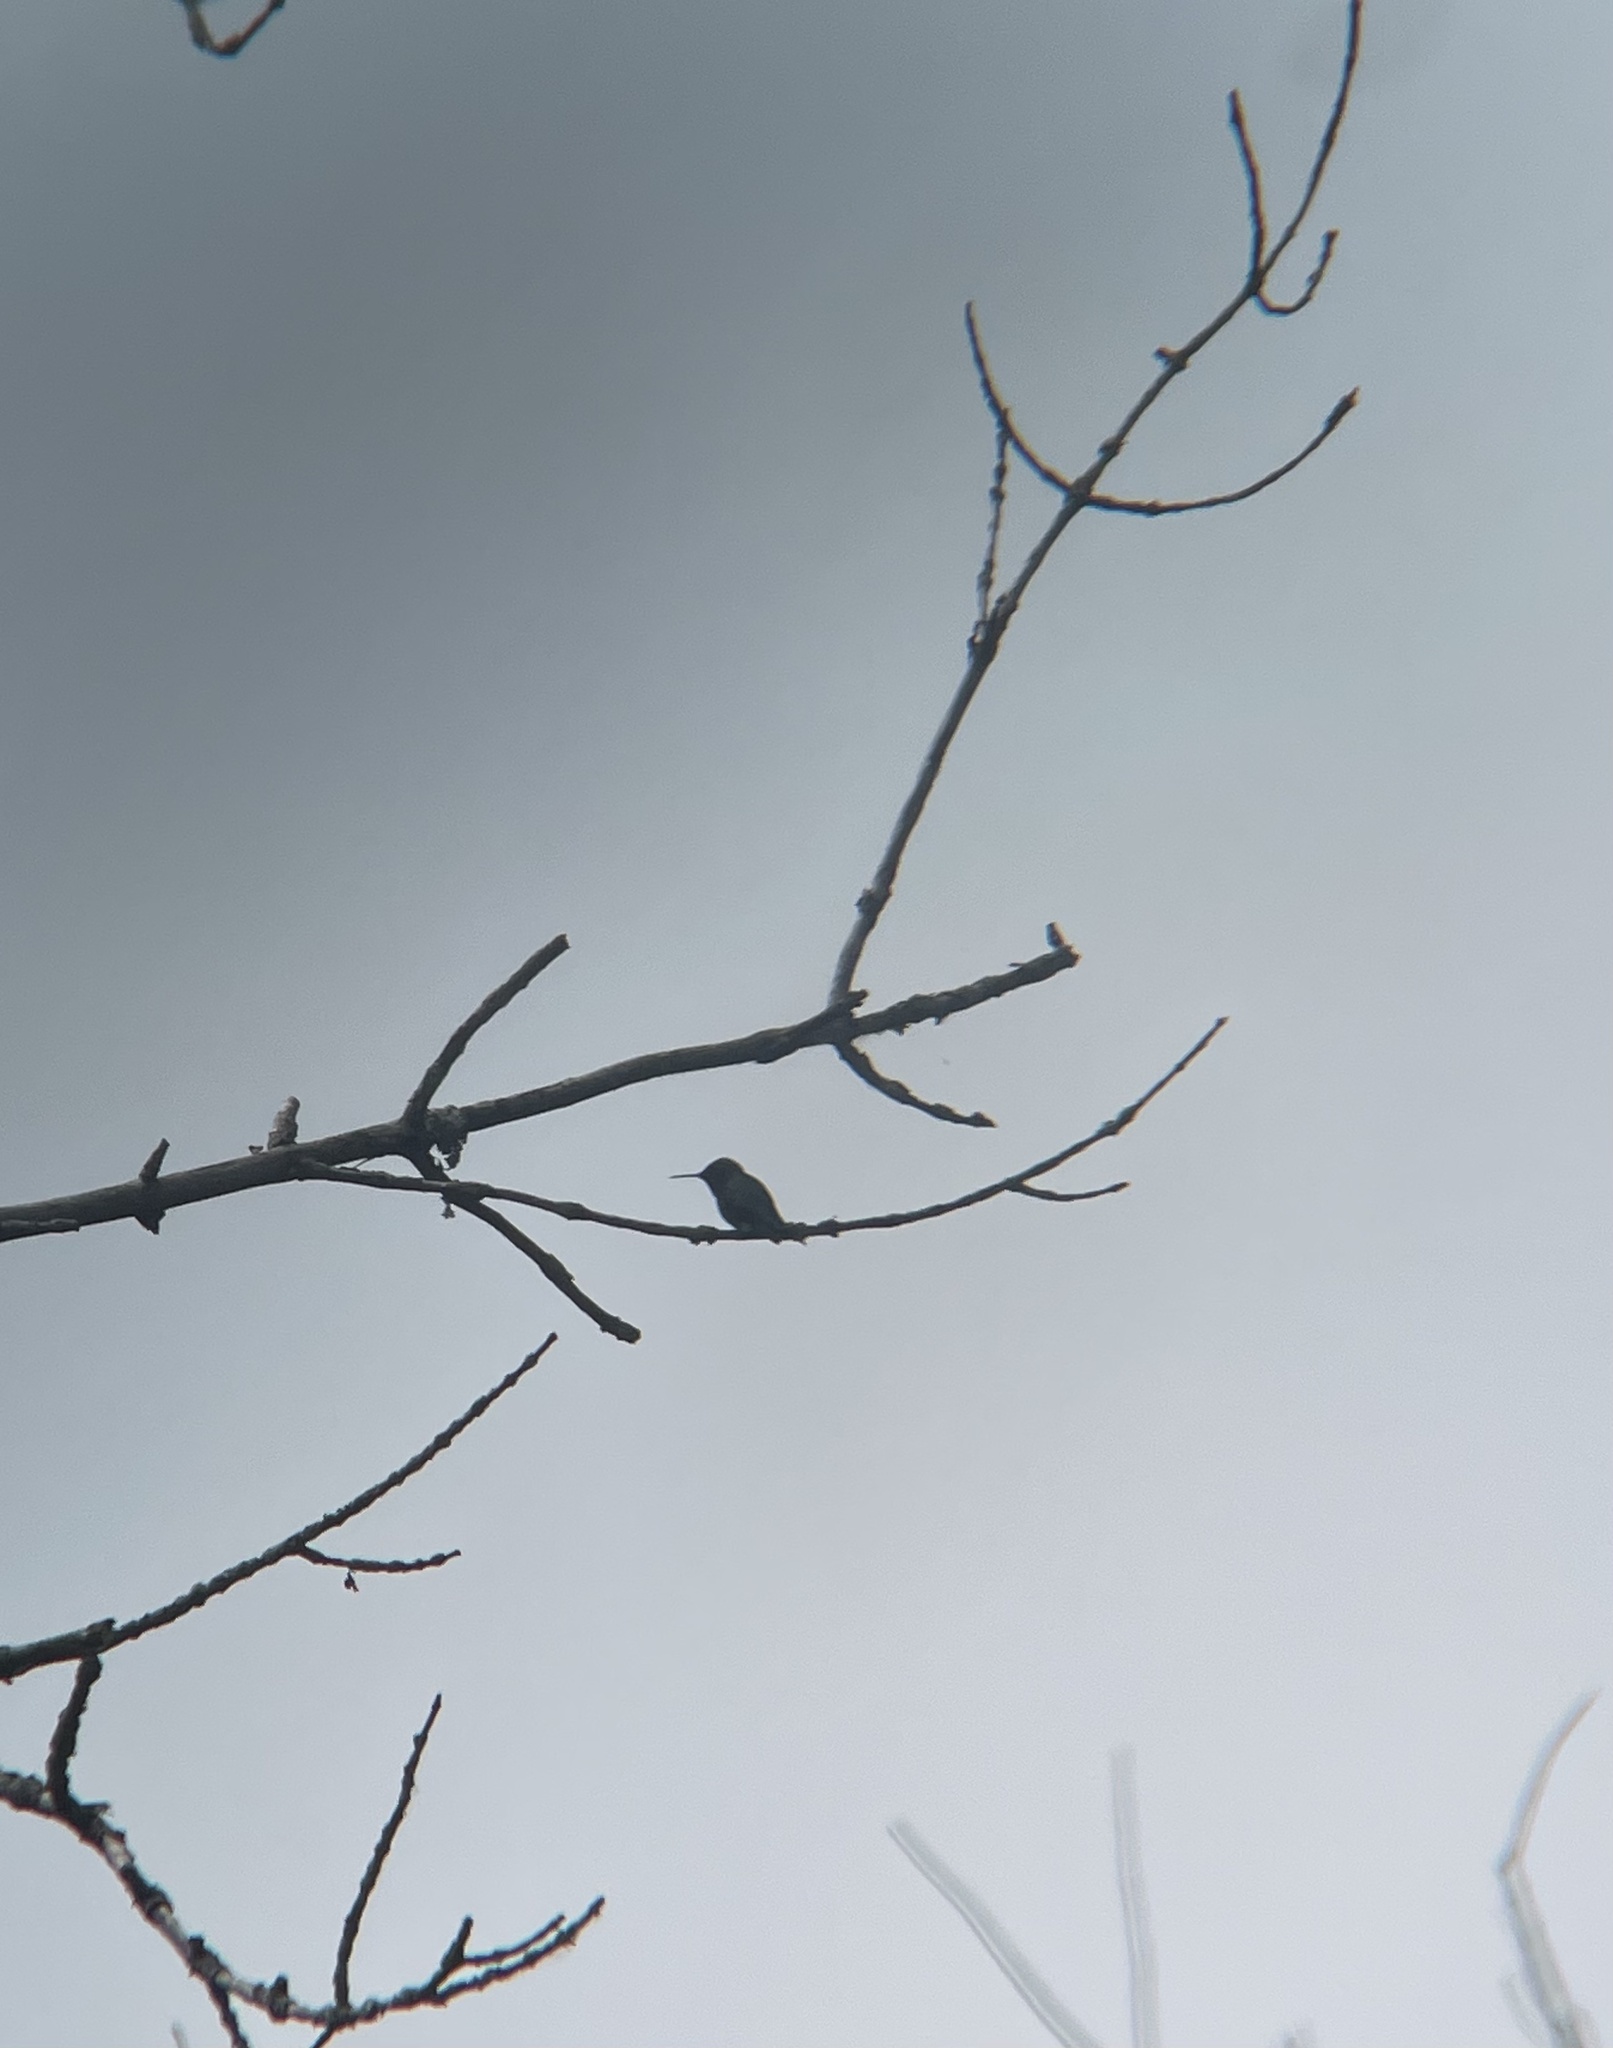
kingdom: Animalia
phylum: Chordata
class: Aves
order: Apodiformes
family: Trochilidae
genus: Archilochus
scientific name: Archilochus colubris
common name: Ruby-throated hummingbird
